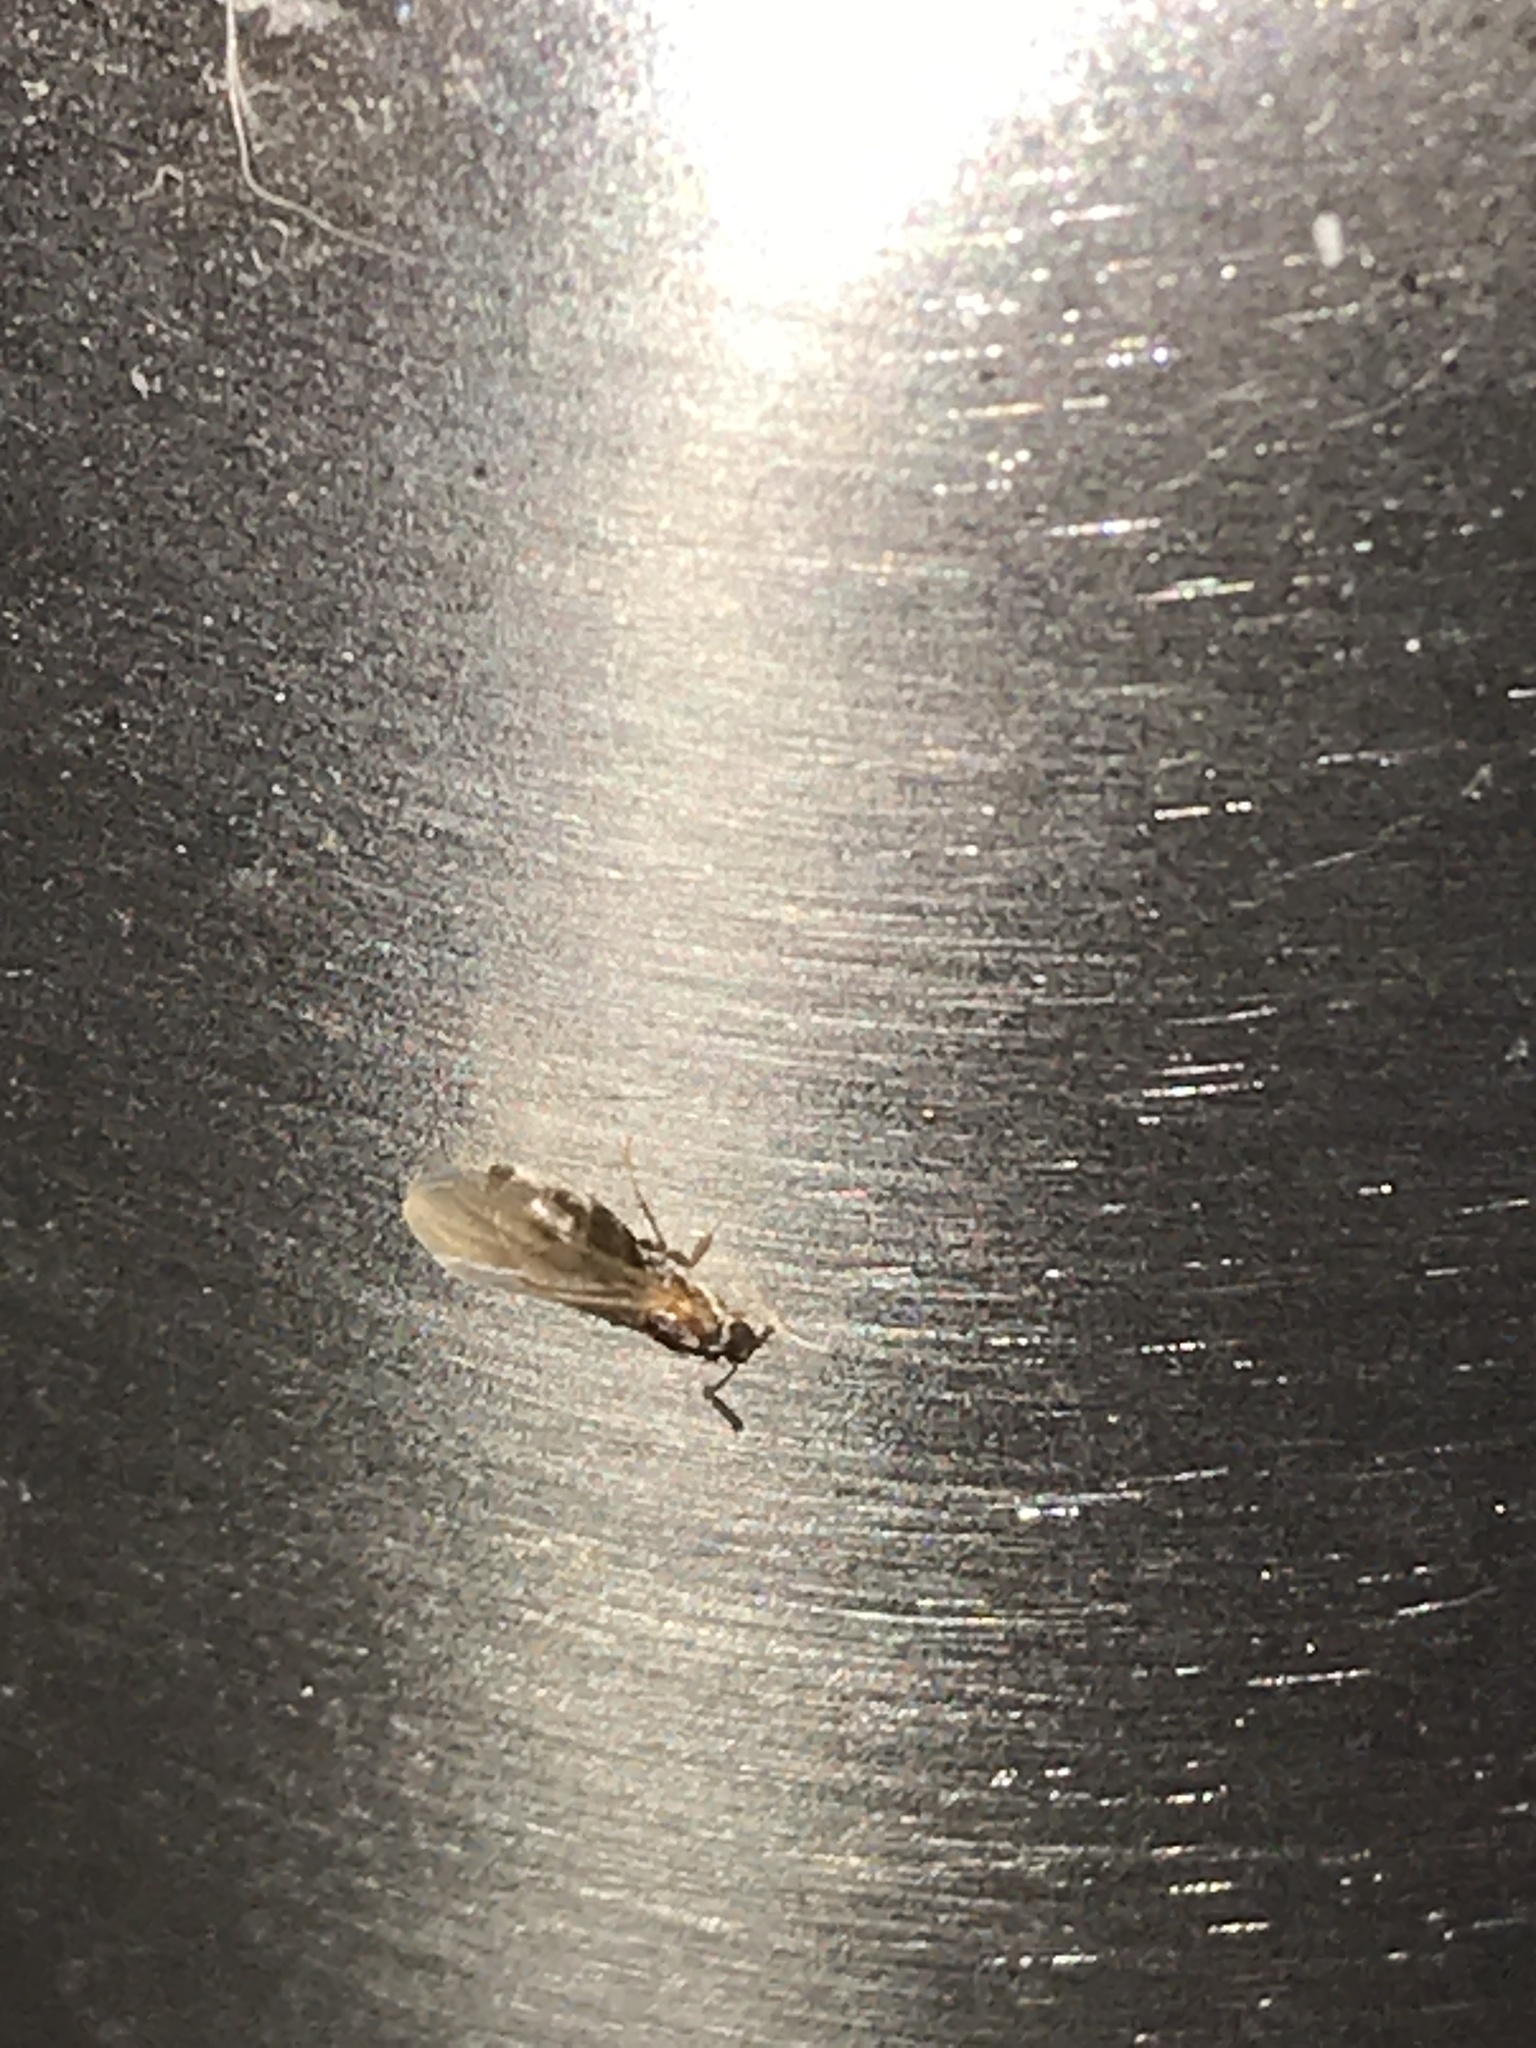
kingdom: Animalia
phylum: Arthropoda
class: Insecta
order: Hymenoptera
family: Formicidae
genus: Brachymyrmex
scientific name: Brachymyrmex patagonicus
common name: Dark rover ant
